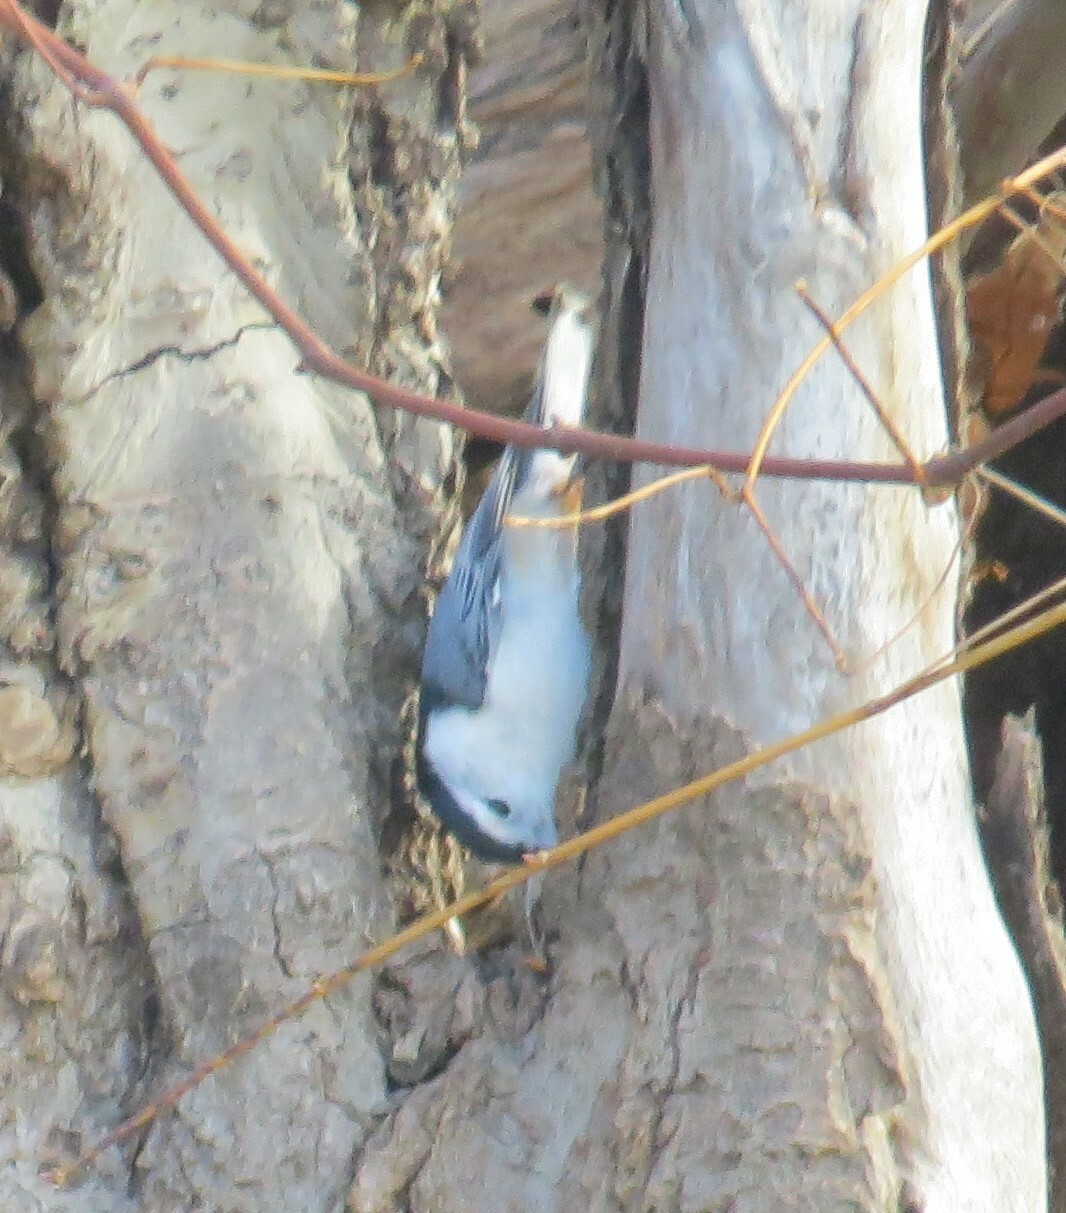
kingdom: Animalia
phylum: Chordata
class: Aves
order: Passeriformes
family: Sittidae
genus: Sitta
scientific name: Sitta carolinensis
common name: White-breasted nuthatch
